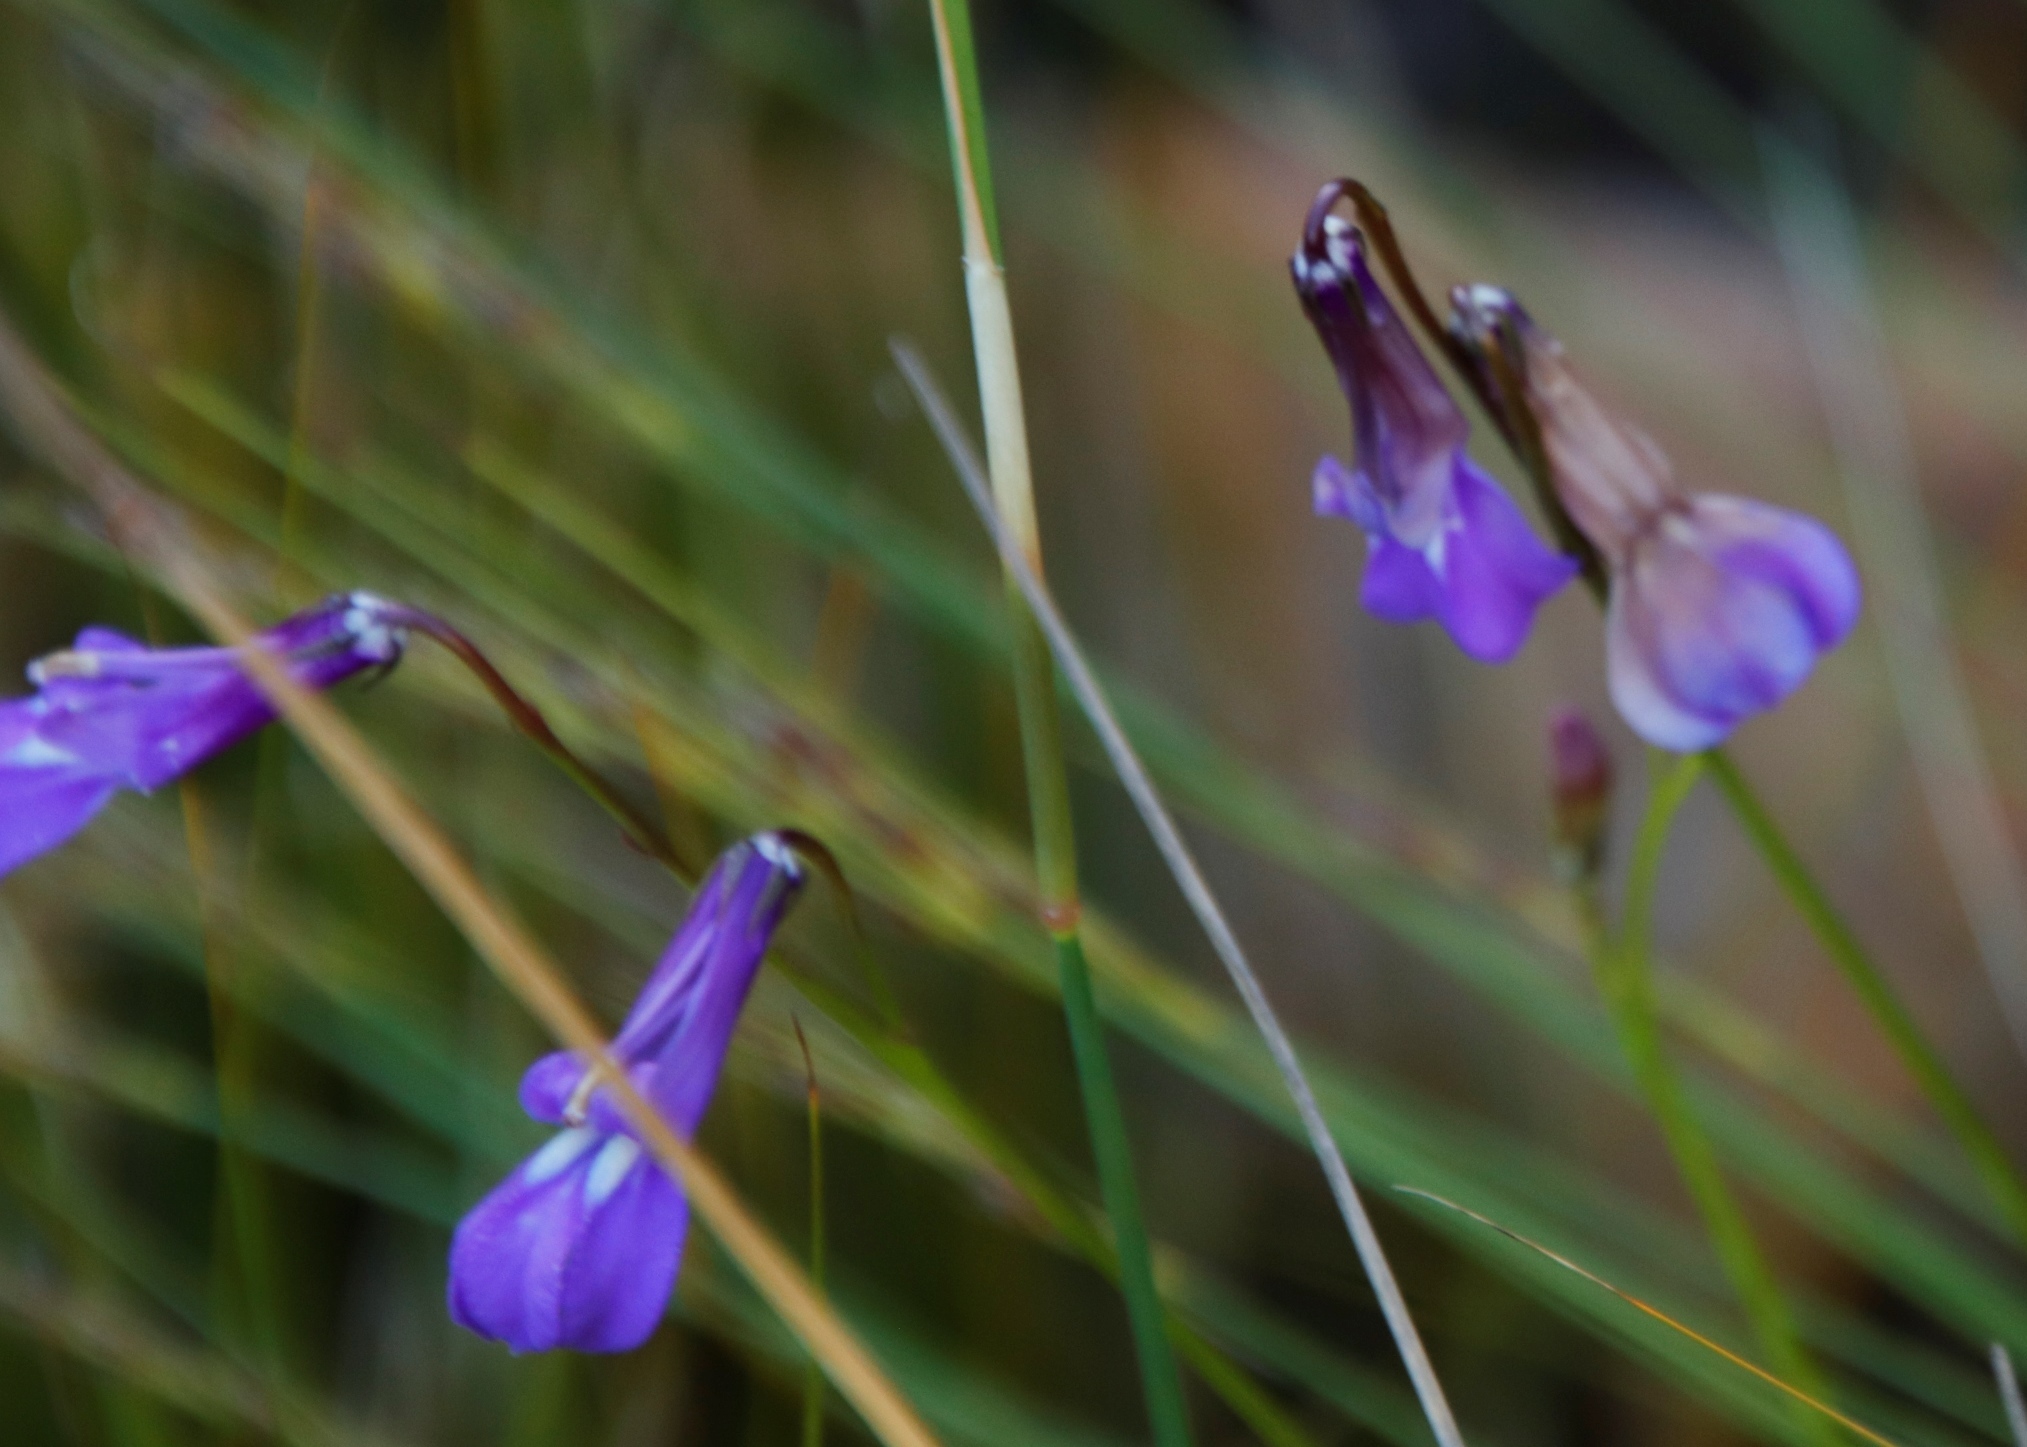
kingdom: Plantae
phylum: Tracheophyta
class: Magnoliopsida
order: Asterales
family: Campanulaceae
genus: Lobelia
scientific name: Lobelia coronopifolia
